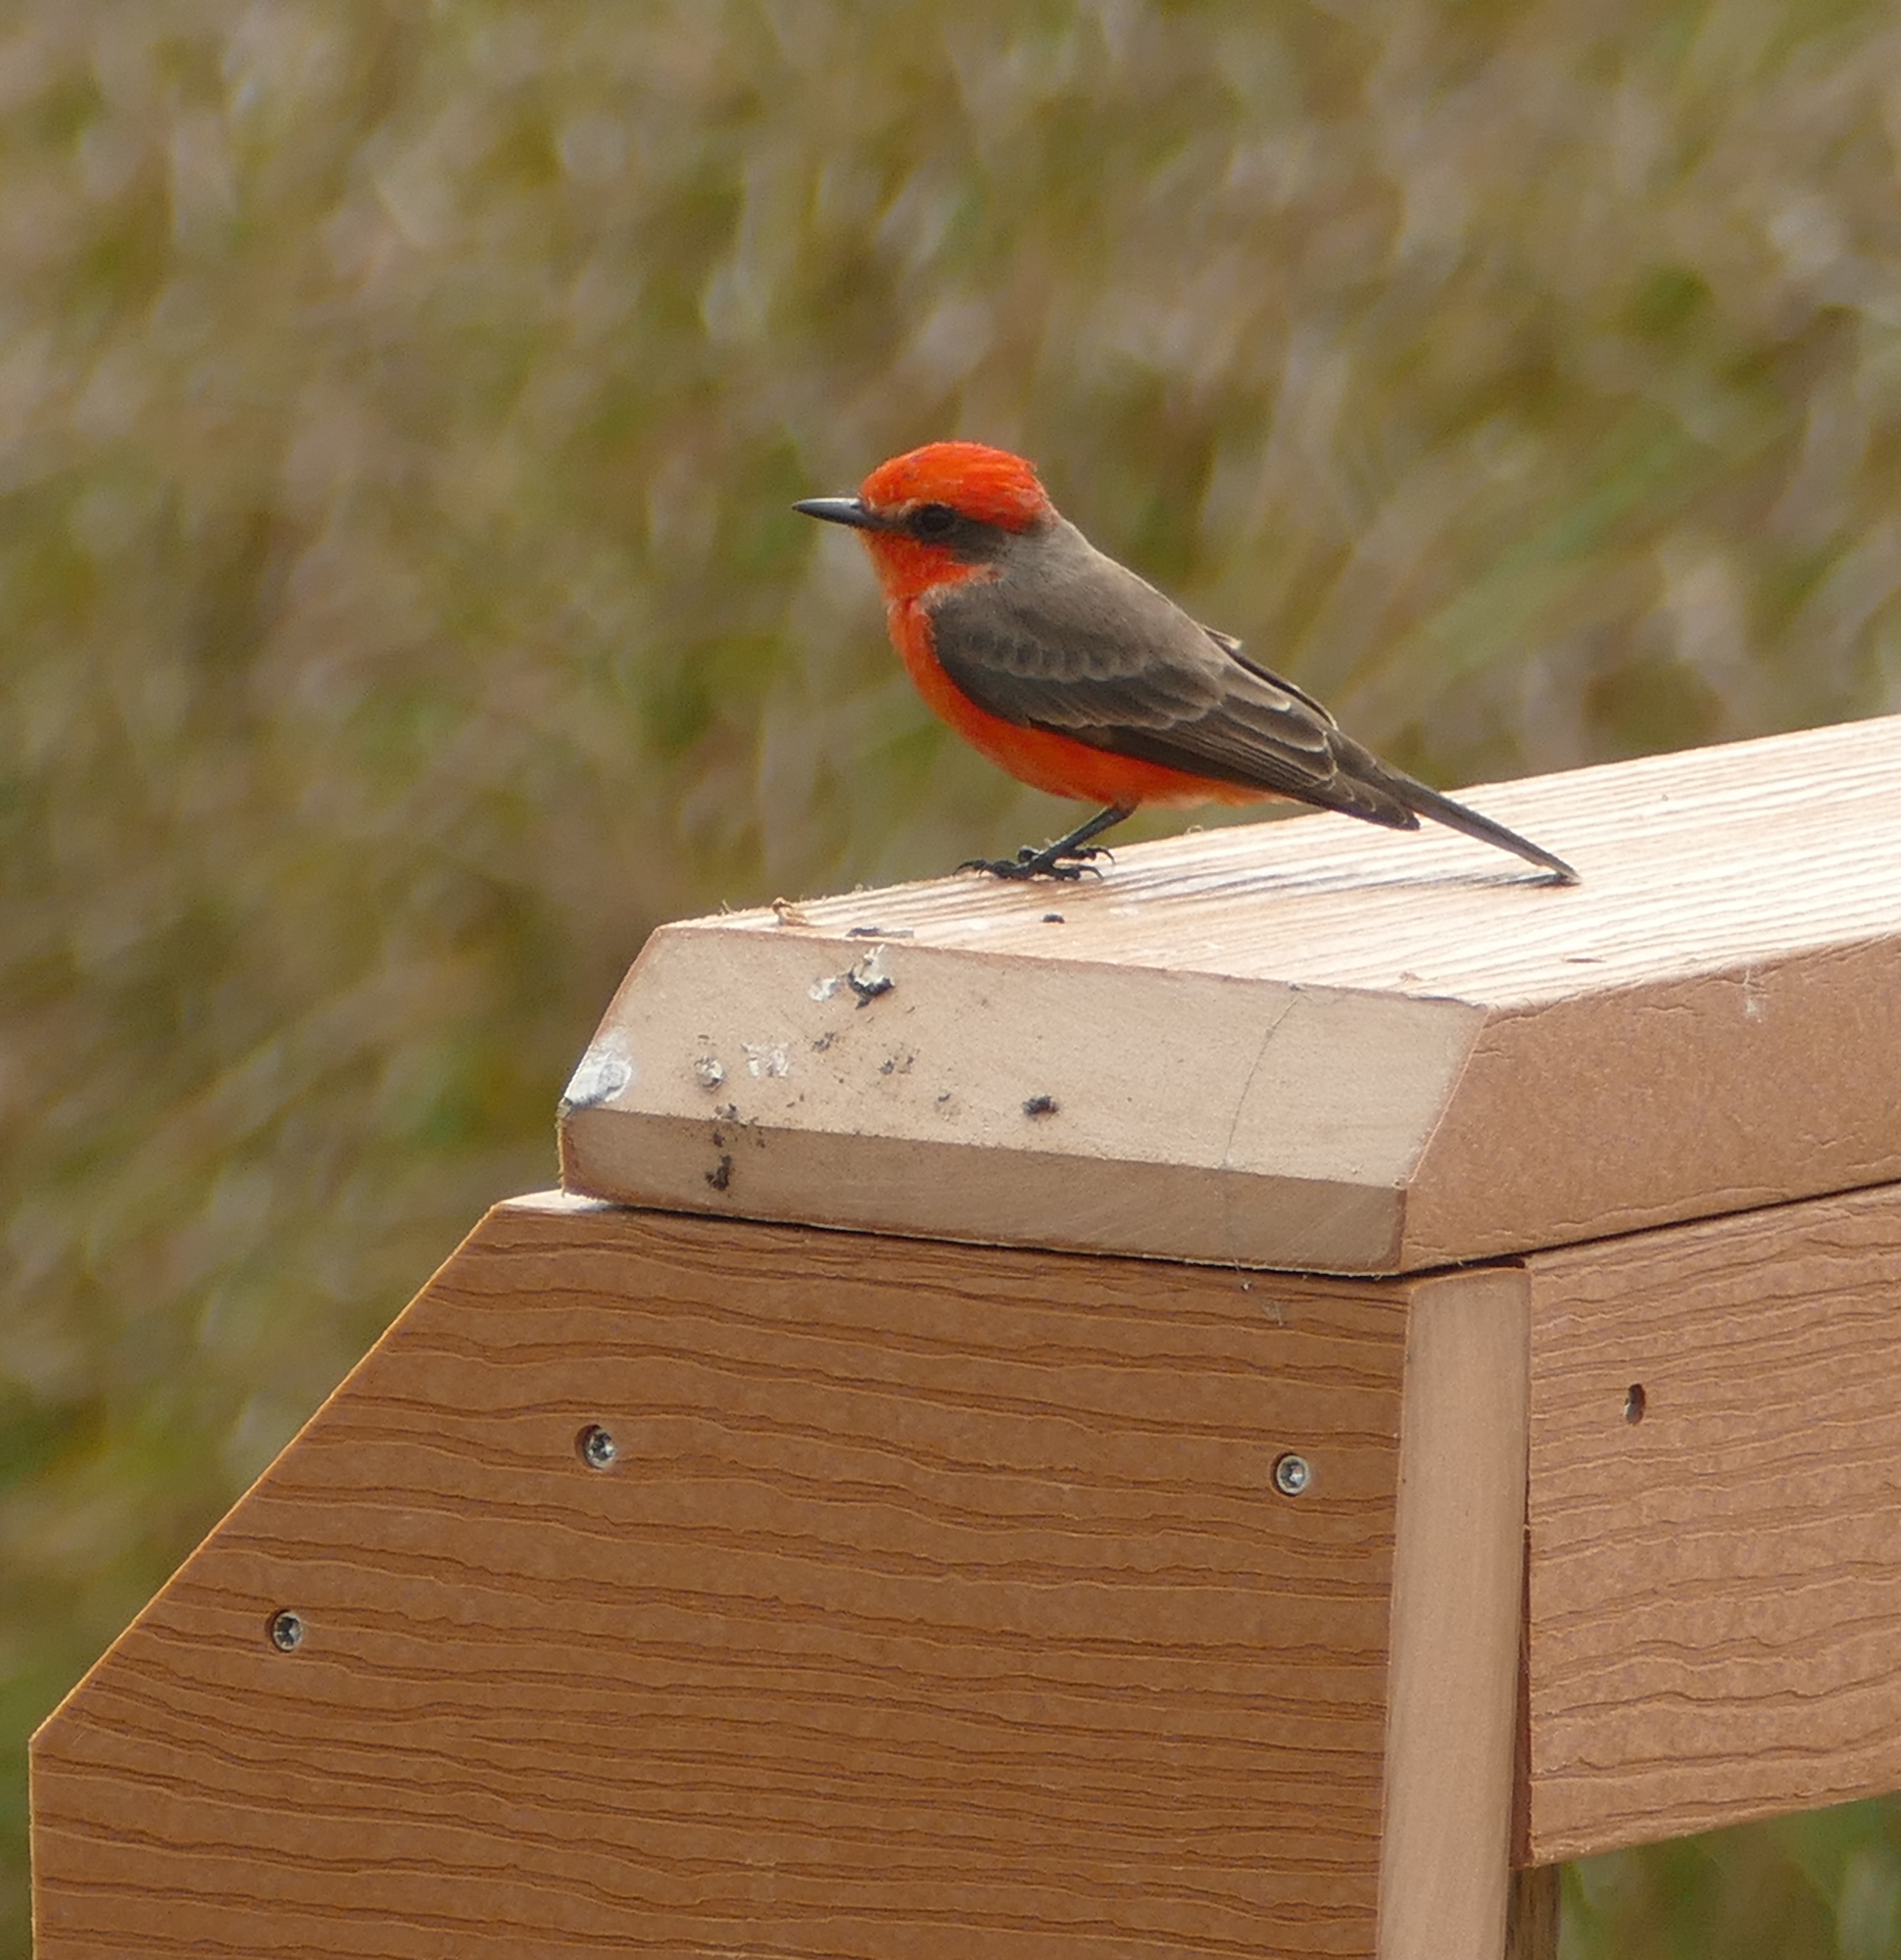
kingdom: Animalia
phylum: Chordata
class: Aves
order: Passeriformes
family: Tyrannidae
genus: Pyrocephalus
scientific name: Pyrocephalus rubinus
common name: Vermilion flycatcher
